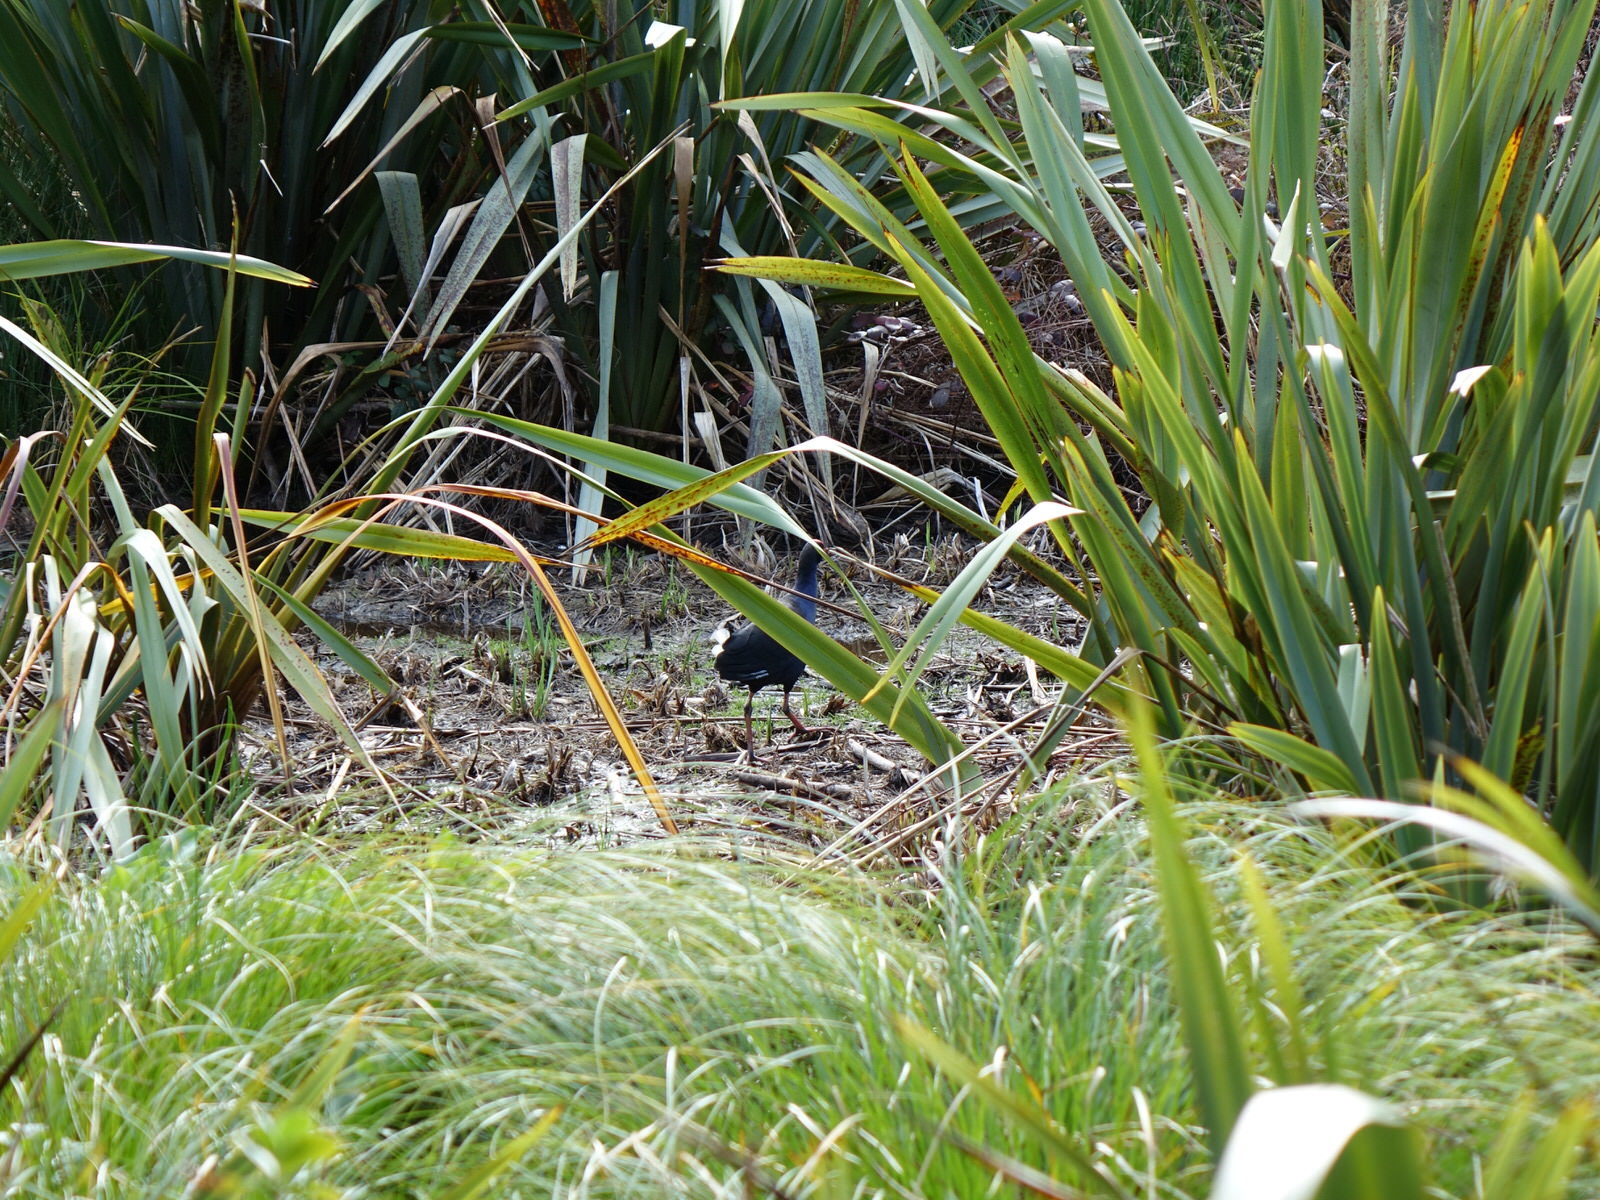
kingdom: Animalia
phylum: Chordata
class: Aves
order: Gruiformes
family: Rallidae
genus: Porphyrio
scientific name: Porphyrio melanotus
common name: Australasian swamphen
